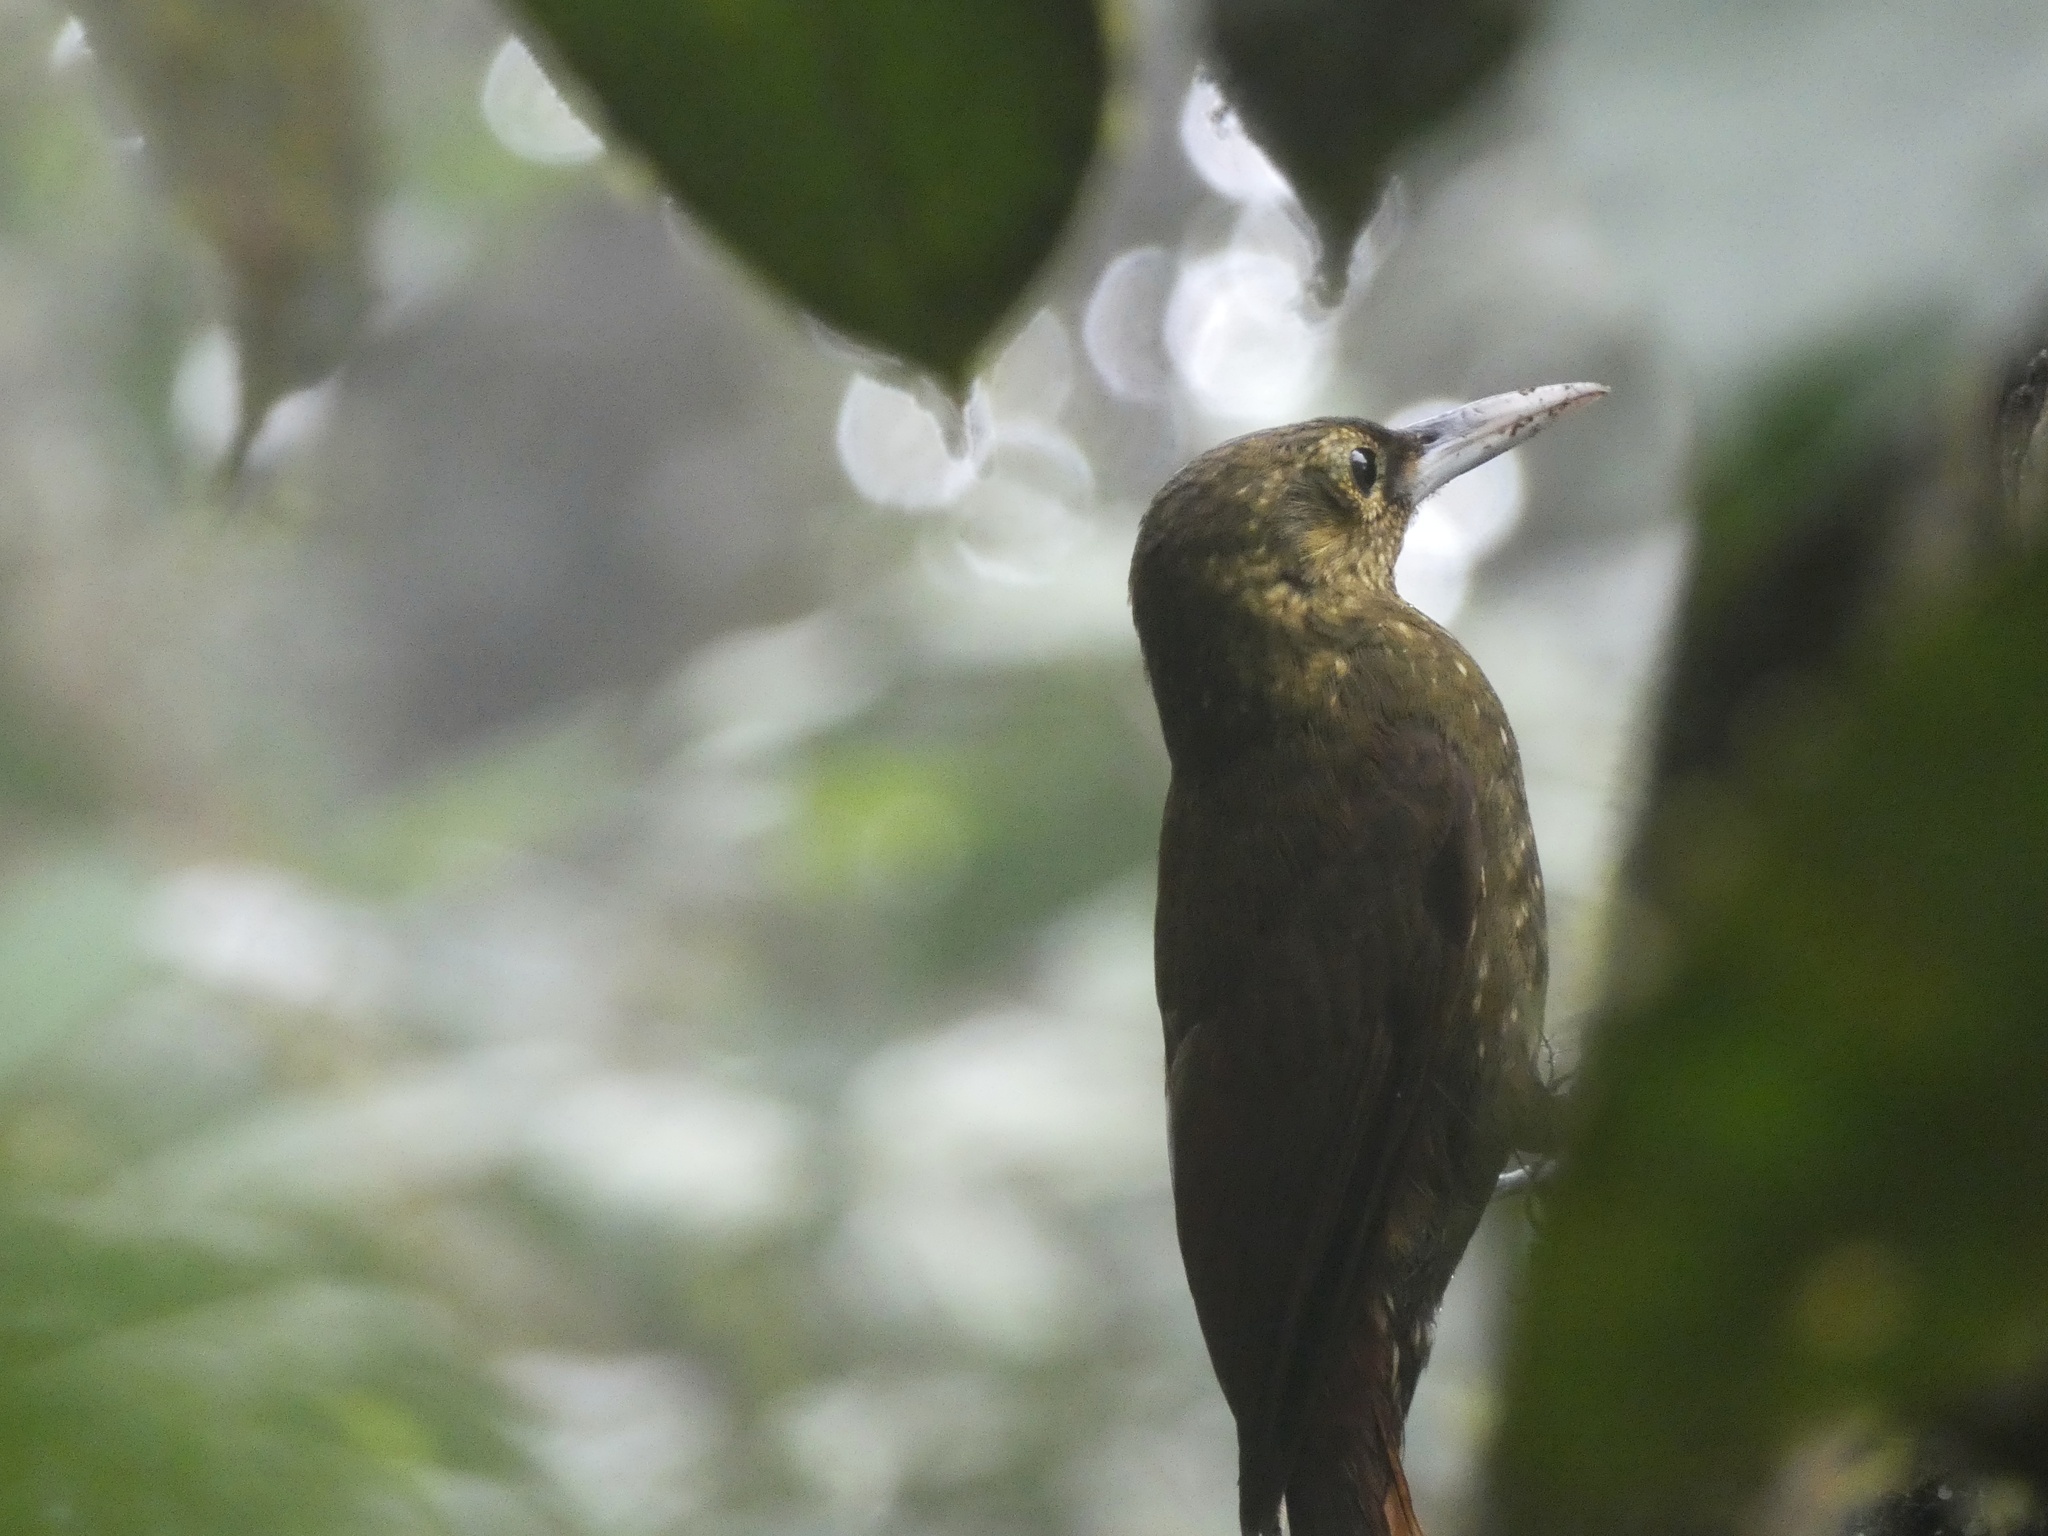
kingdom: Animalia
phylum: Chordata
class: Aves
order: Passeriformes
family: Furnariidae
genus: Xiphorhynchus
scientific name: Xiphorhynchus erythropygius
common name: Spotted woodcreeper
